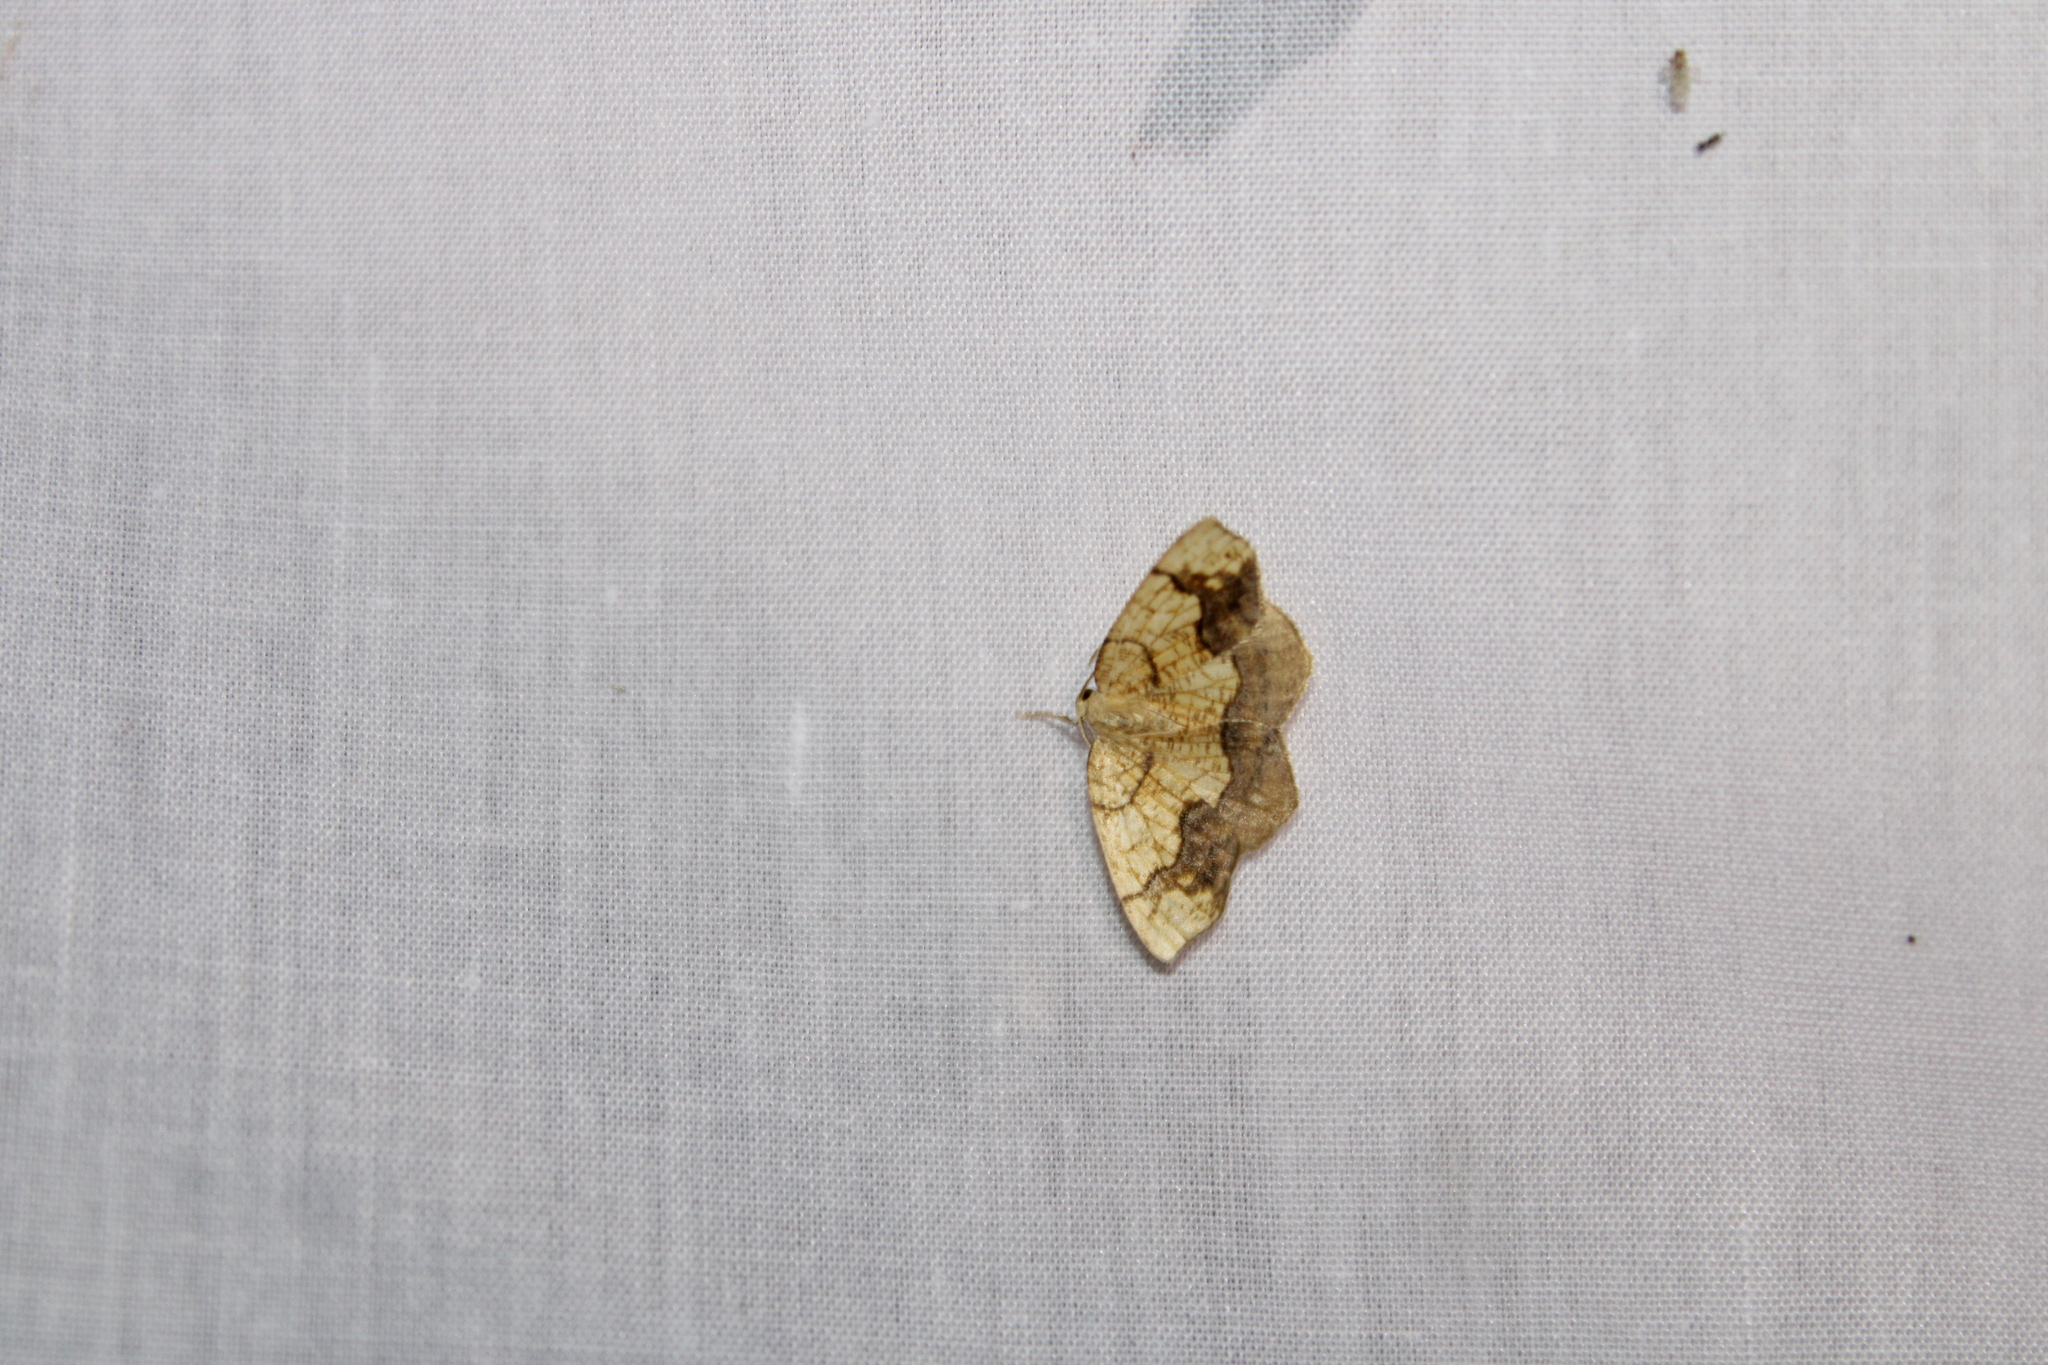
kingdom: Animalia
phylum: Arthropoda
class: Insecta
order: Lepidoptera
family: Geometridae
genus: Nematocampa
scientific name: Nematocampa resistaria
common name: Horned spanworm moth
